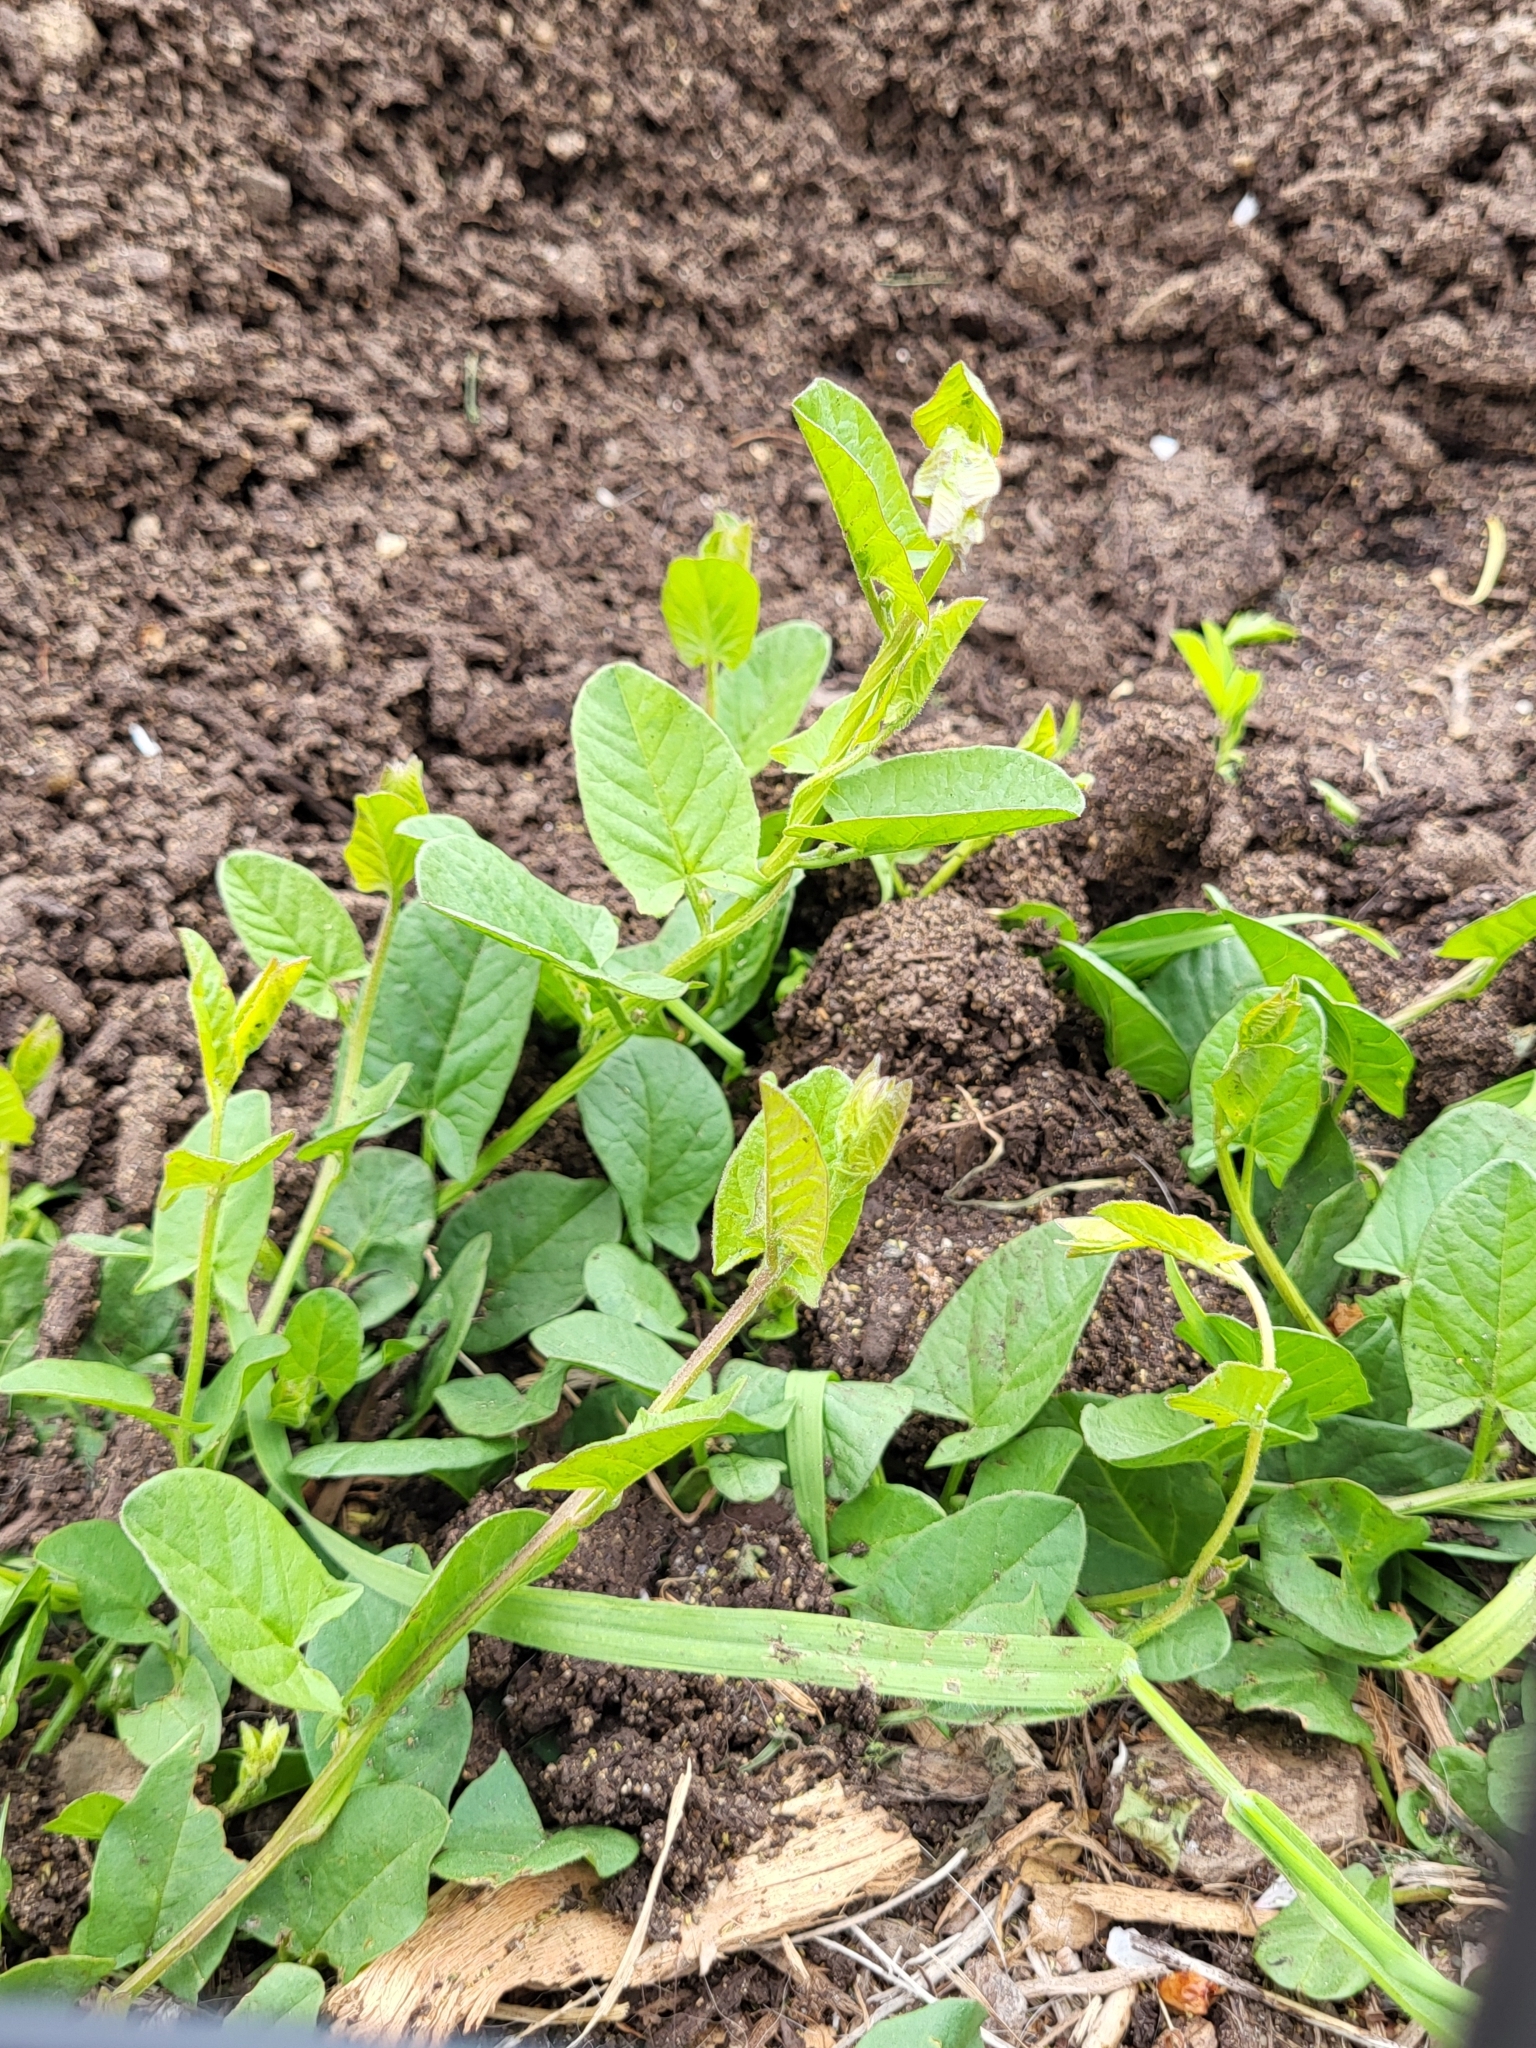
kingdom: Plantae
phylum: Tracheophyta
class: Magnoliopsida
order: Solanales
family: Convolvulaceae
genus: Convolvulus
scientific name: Convolvulus arvensis
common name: Field bindweed
